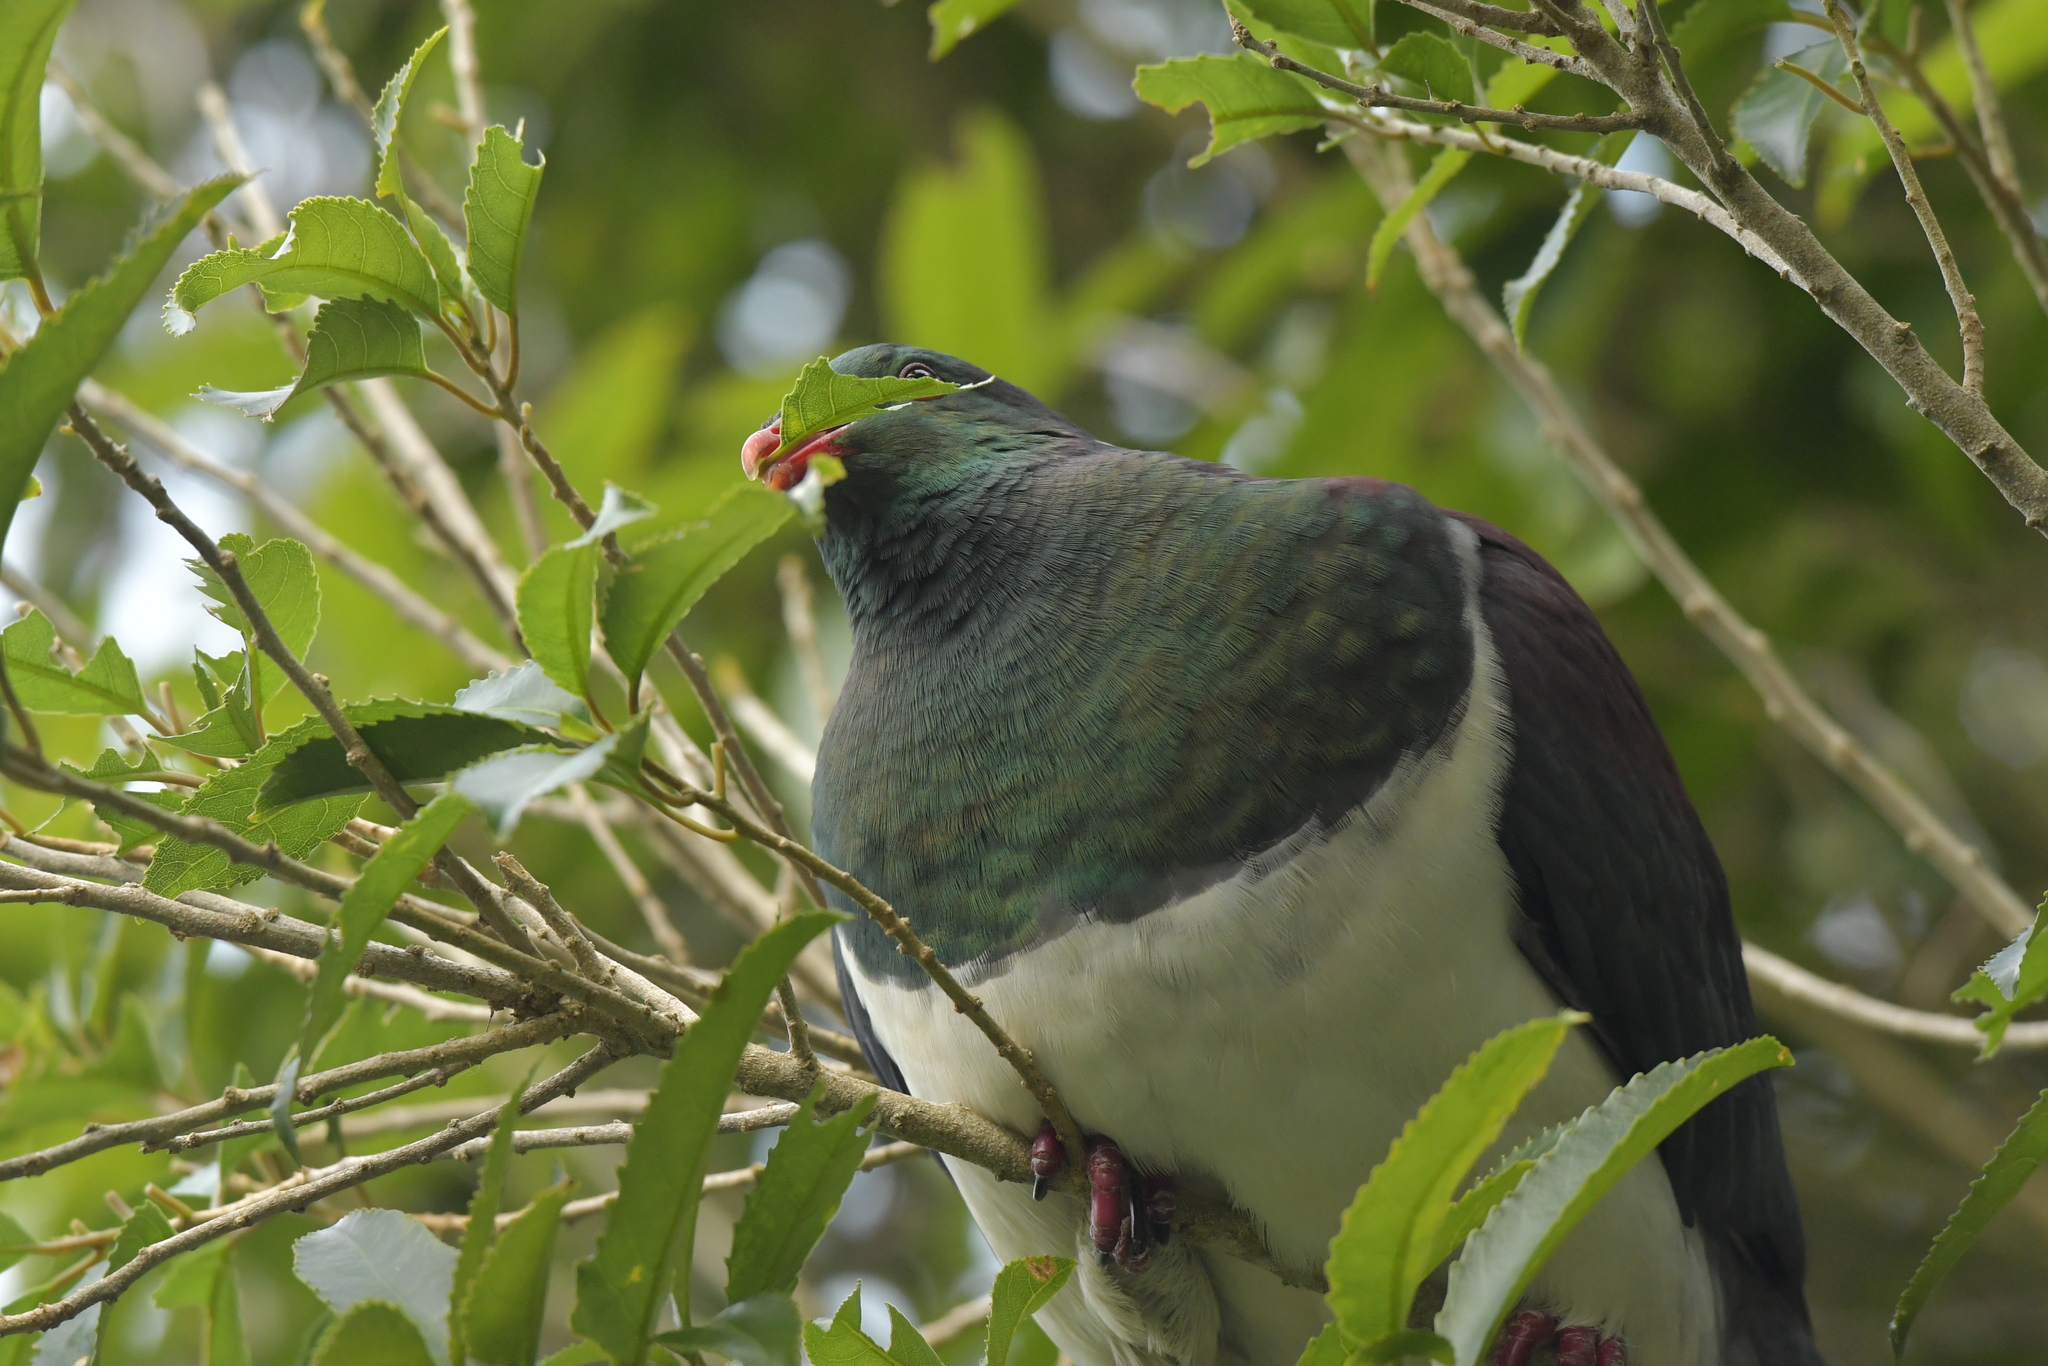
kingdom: Animalia
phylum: Chordata
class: Aves
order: Columbiformes
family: Columbidae
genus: Hemiphaga
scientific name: Hemiphaga novaeseelandiae
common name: New zealand pigeon
